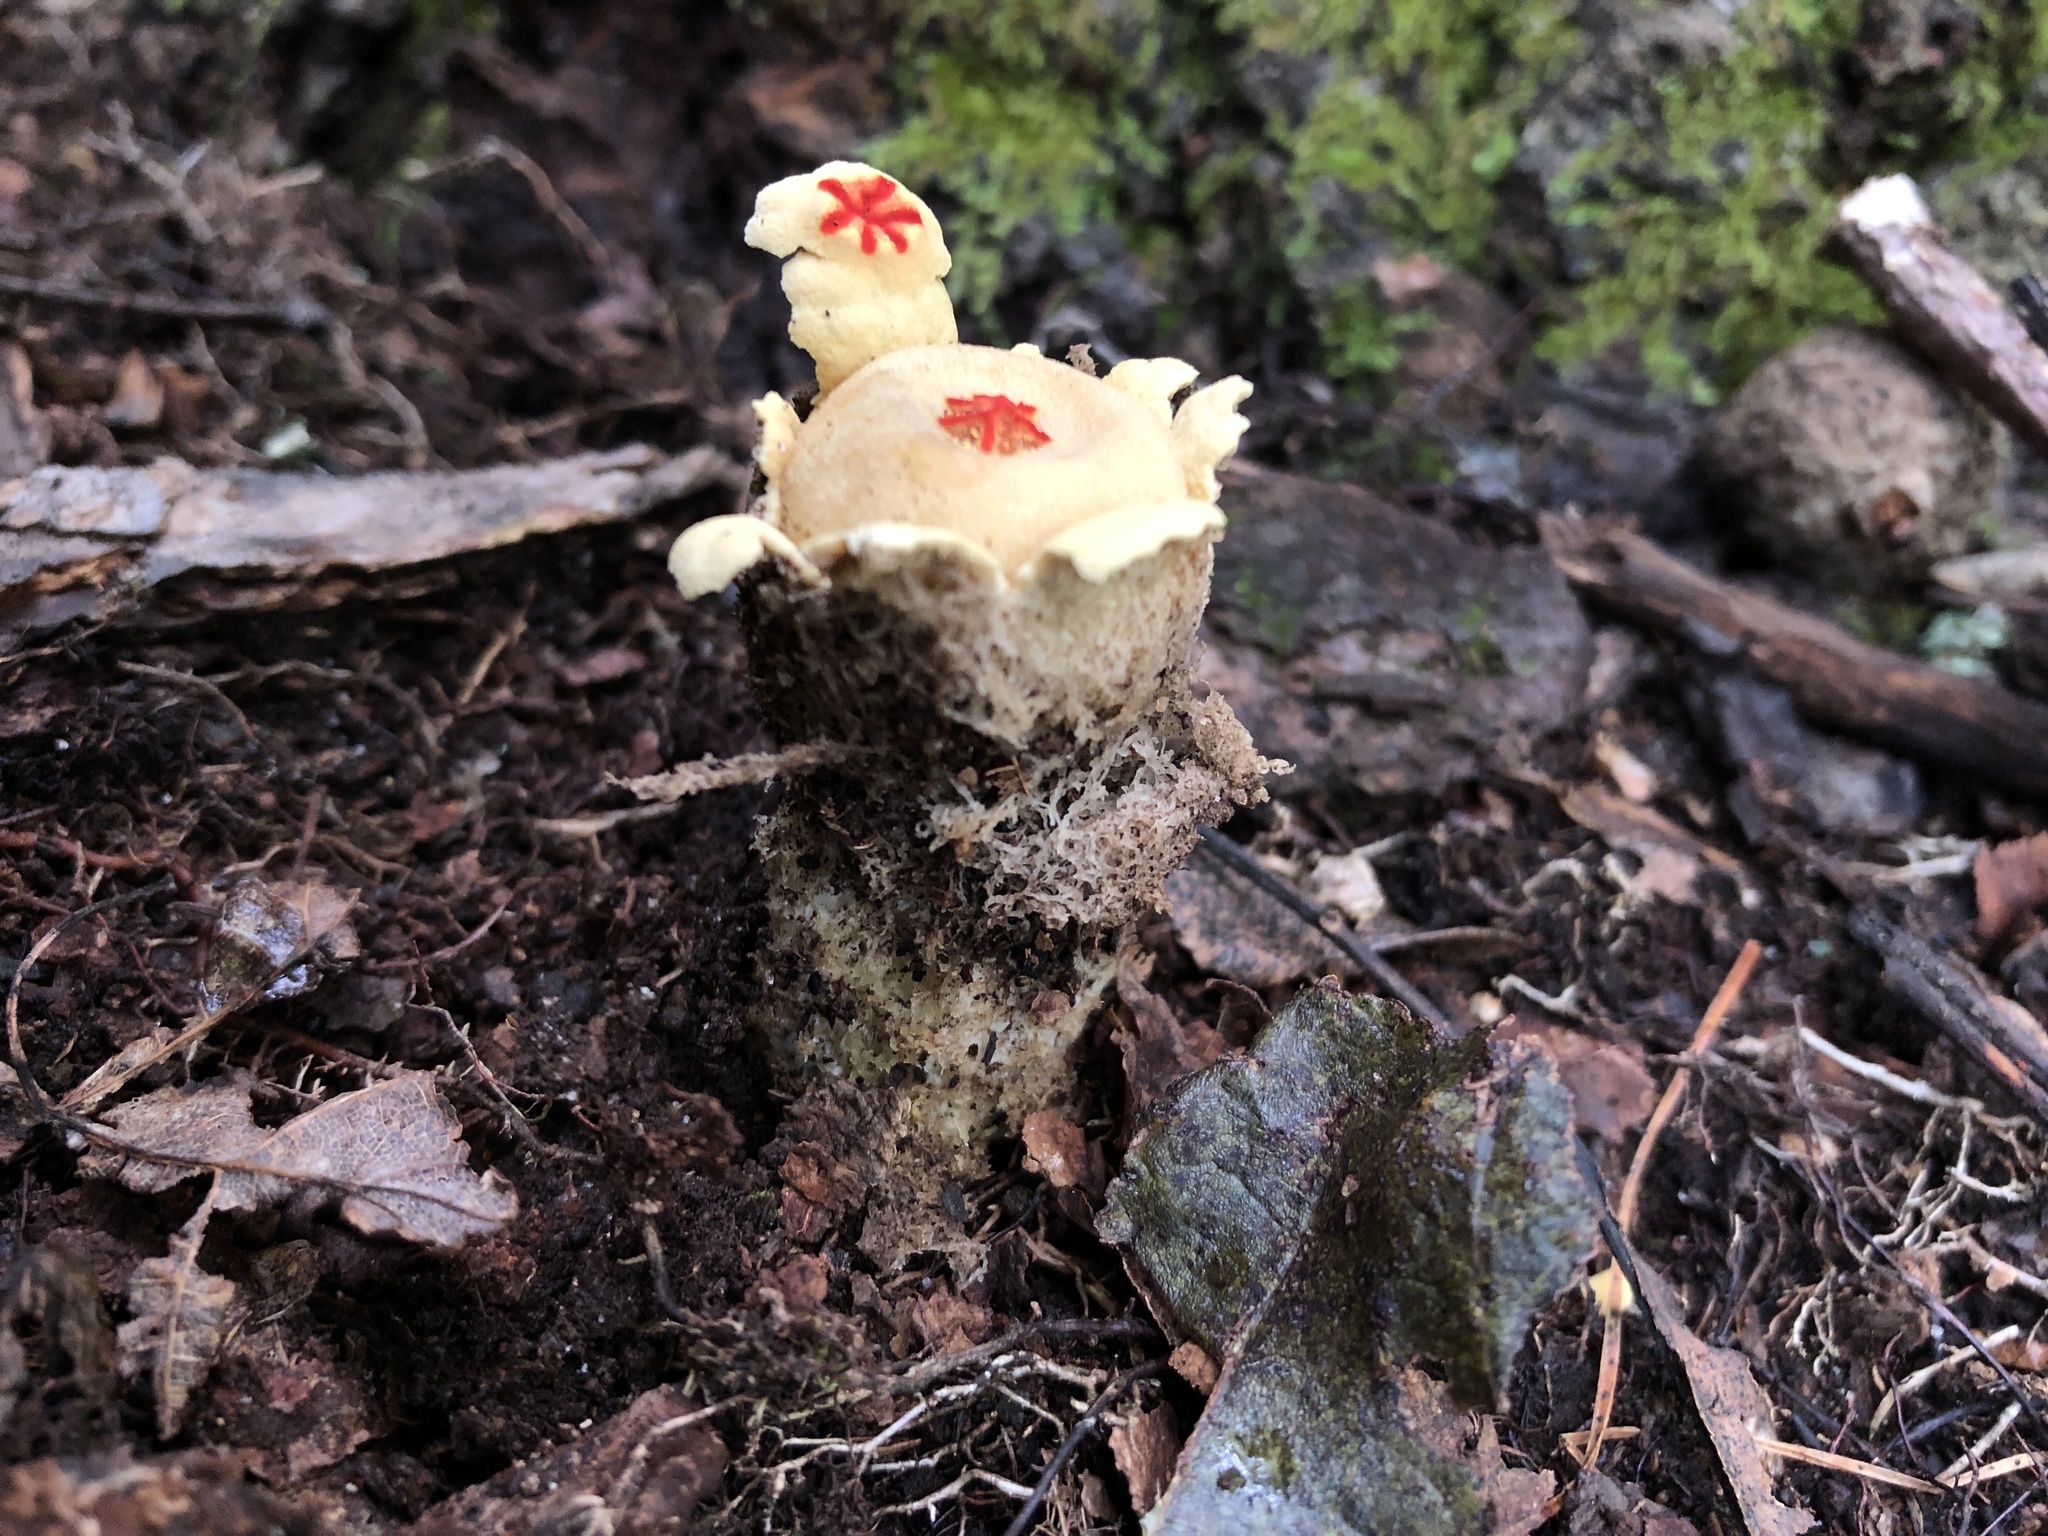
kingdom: Fungi
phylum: Basidiomycota
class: Agaricomycetes
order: Boletales
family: Calostomataceae
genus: Calostoma
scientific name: Calostoma lutescens
